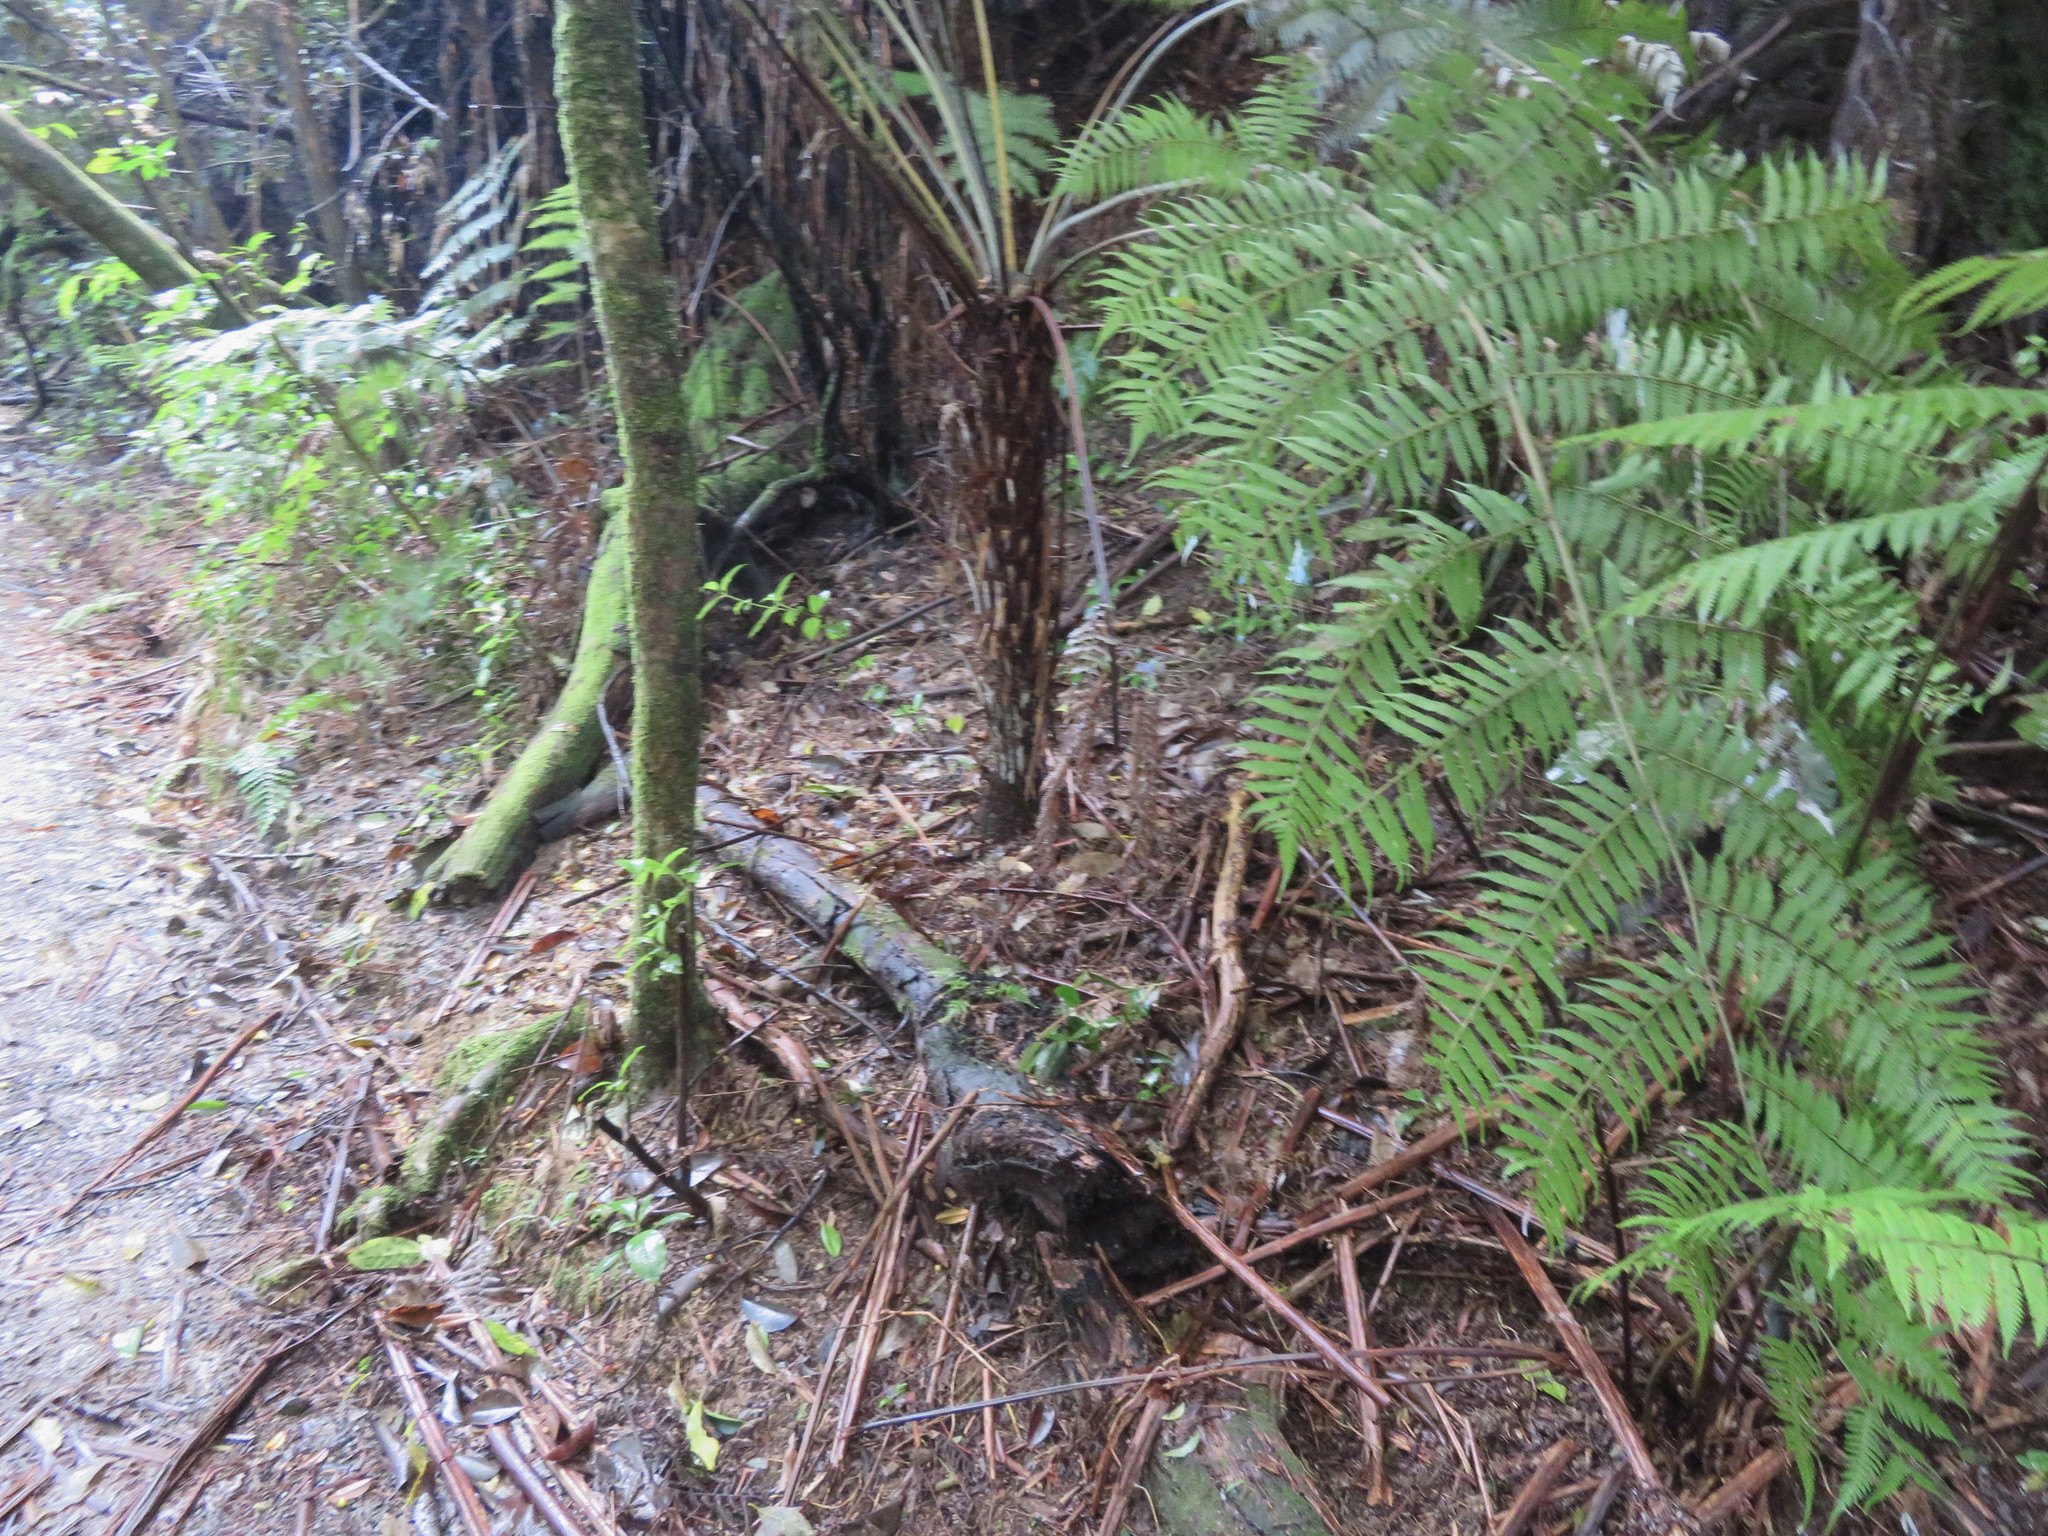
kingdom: Plantae
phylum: Tracheophyta
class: Polypodiopsida
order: Cyatheales
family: Cyatheaceae
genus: Alsophila
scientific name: Alsophila dealbata
